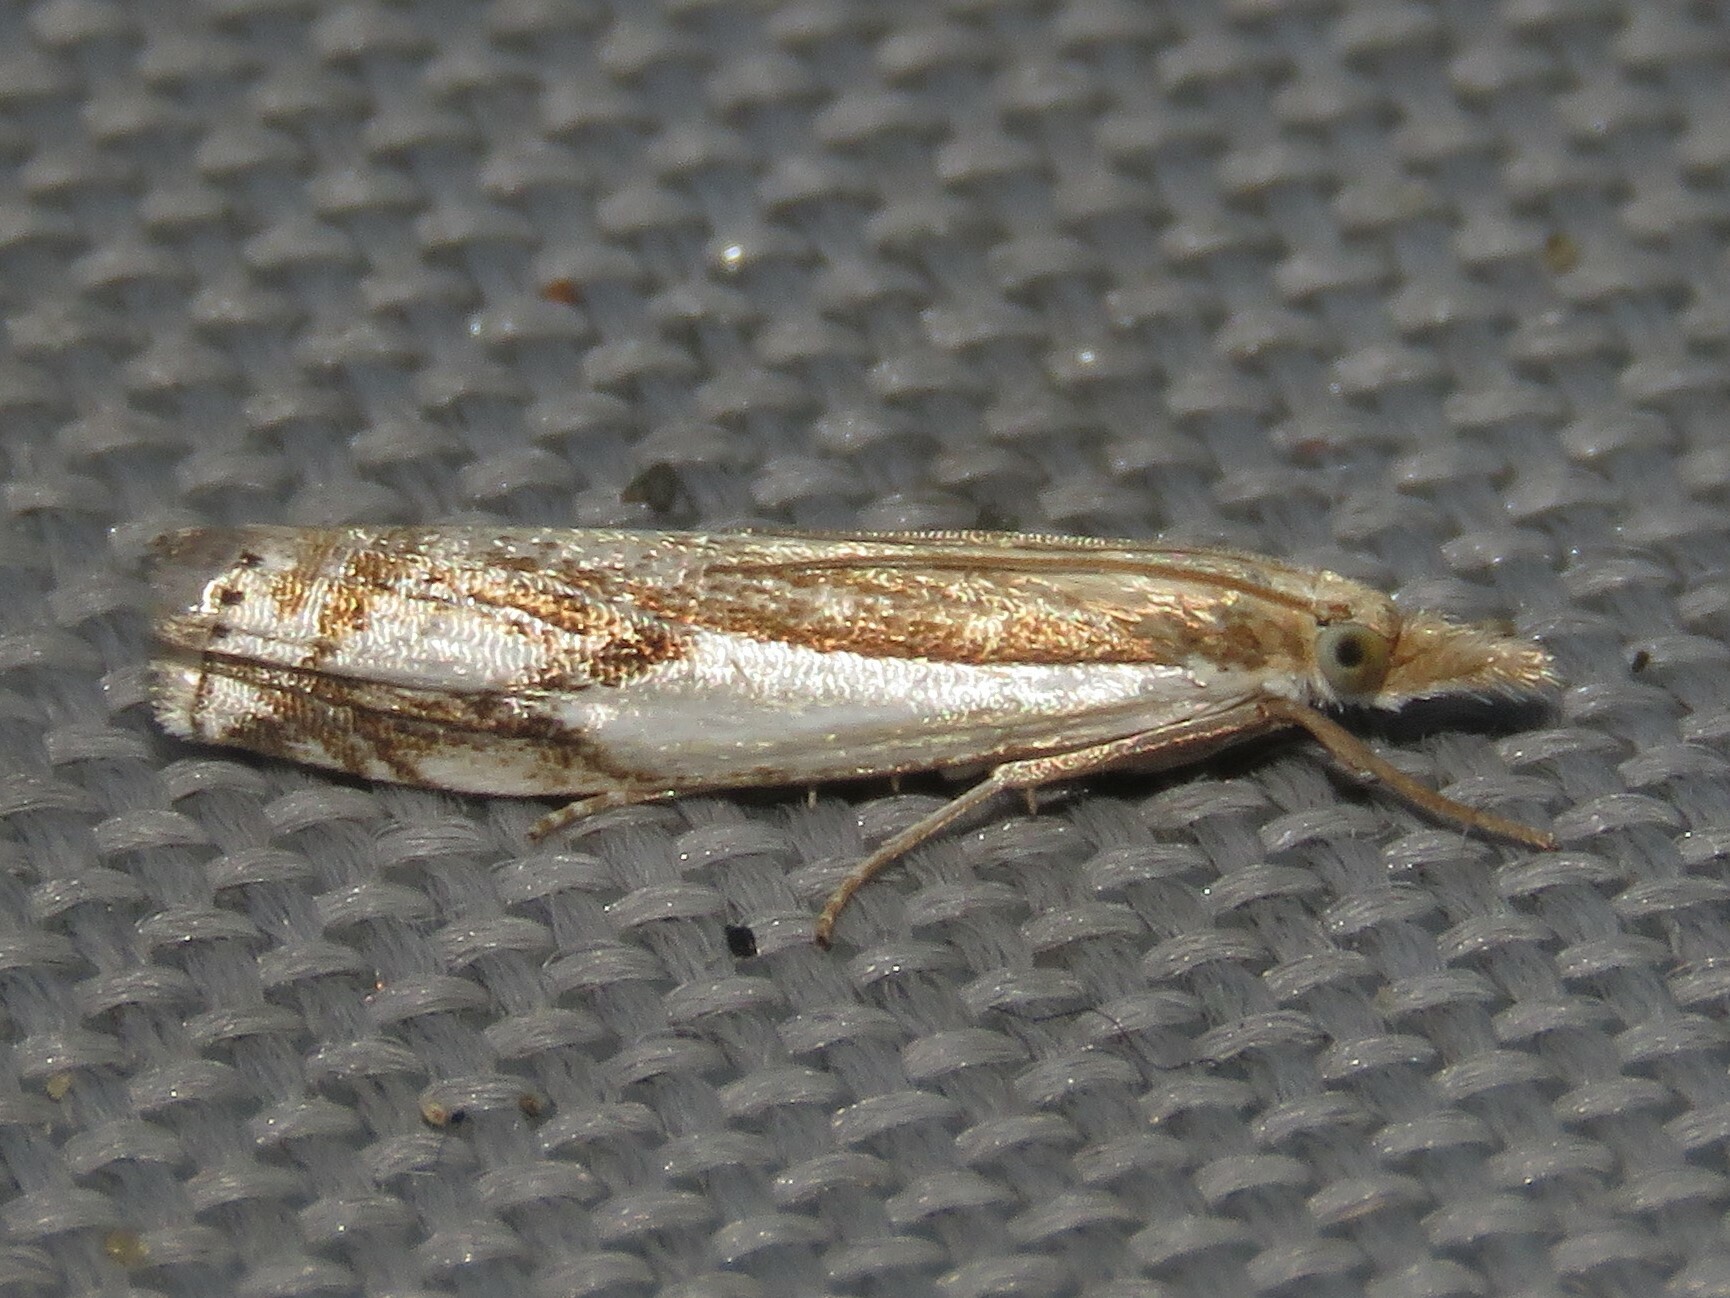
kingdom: Animalia
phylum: Arthropoda
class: Insecta
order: Lepidoptera
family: Crambidae
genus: Crambus
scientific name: Crambus agitatellus
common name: Double-banded grass-veneer
